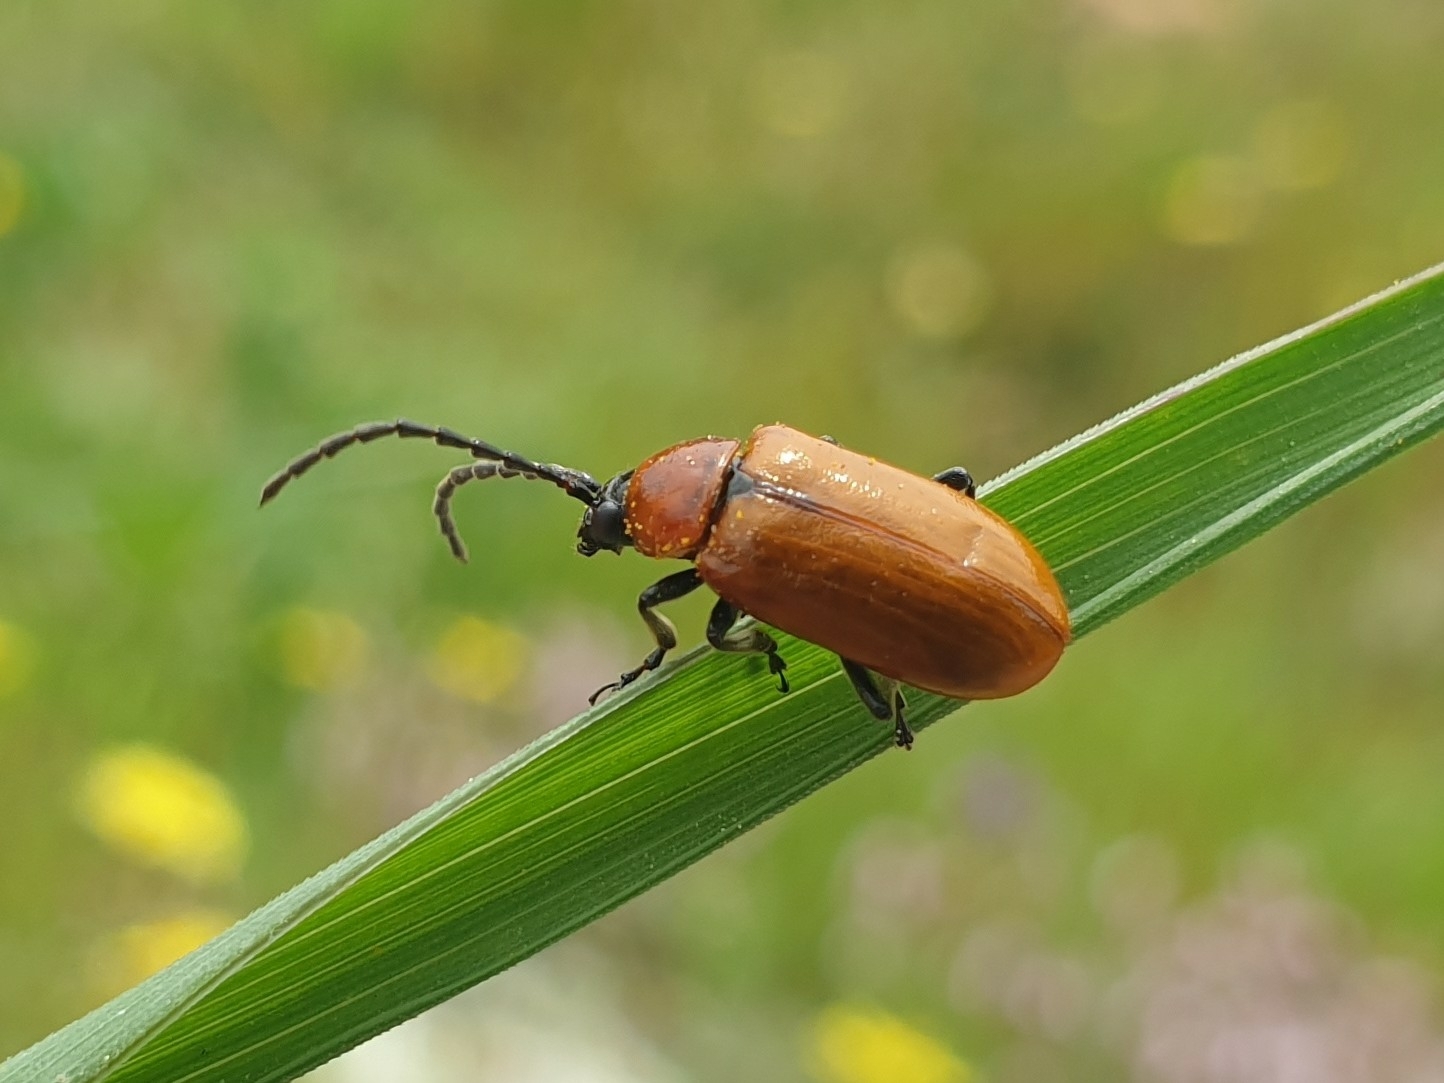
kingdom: Animalia
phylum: Arthropoda
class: Insecta
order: Coleoptera
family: Chrysomelidae
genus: Exosoma
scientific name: Exosoma lusitanicum
